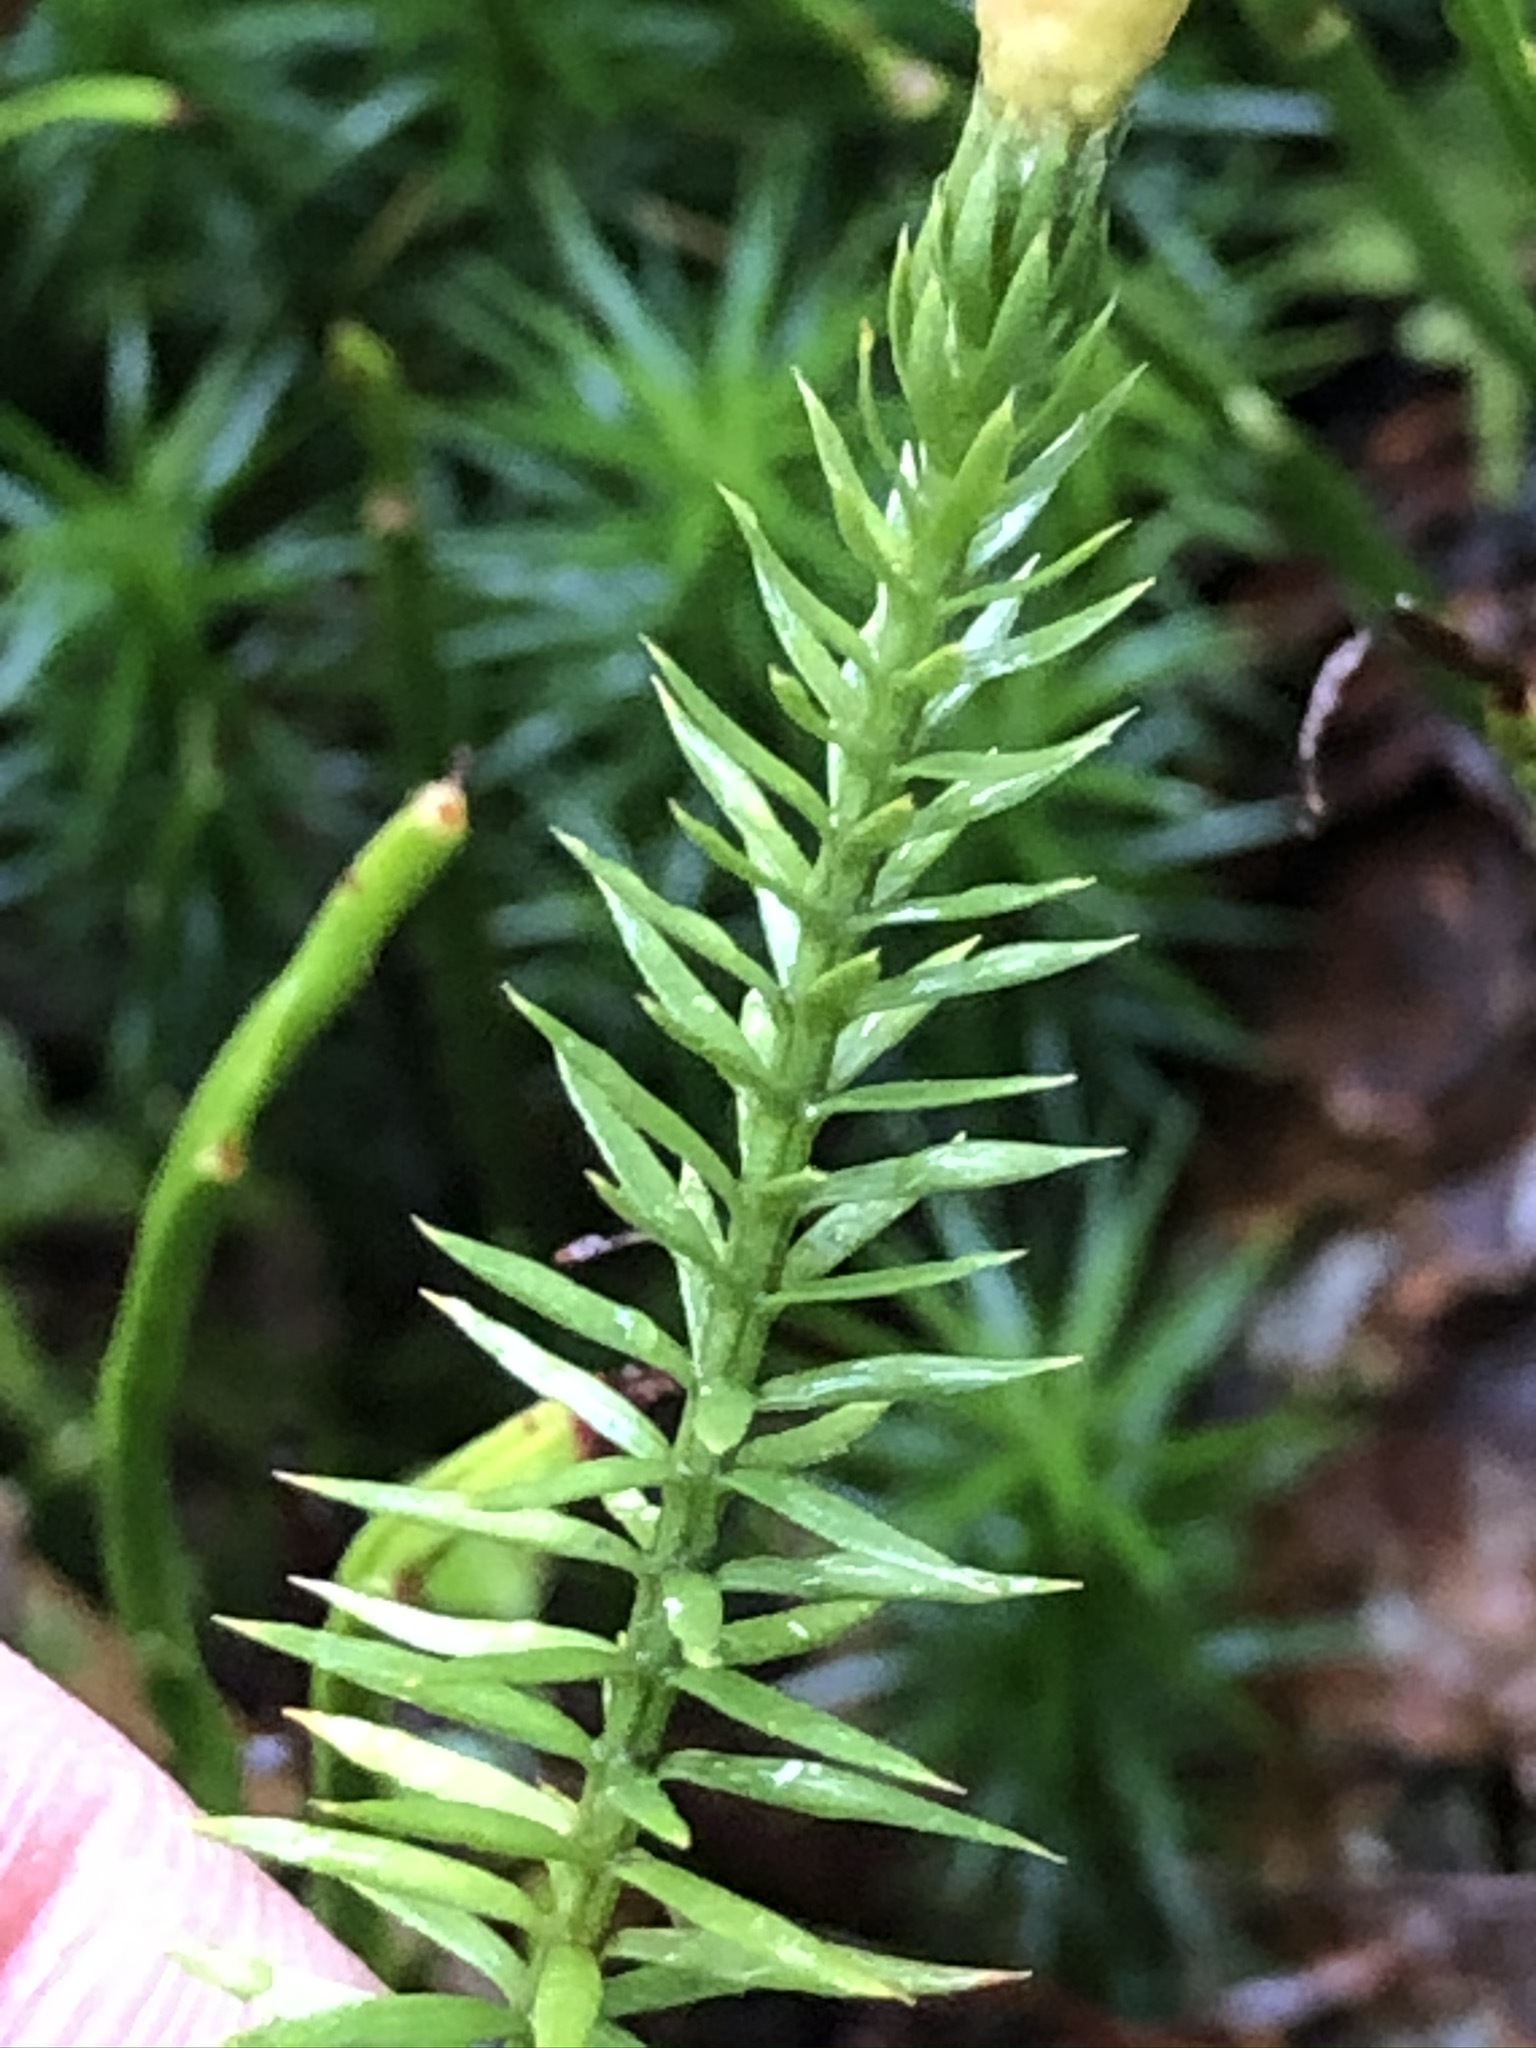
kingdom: Plantae
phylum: Tracheophyta
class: Lycopodiopsida
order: Lycopodiales
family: Lycopodiaceae
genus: Spinulum
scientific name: Spinulum annotinum
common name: Interrupted club-moss
